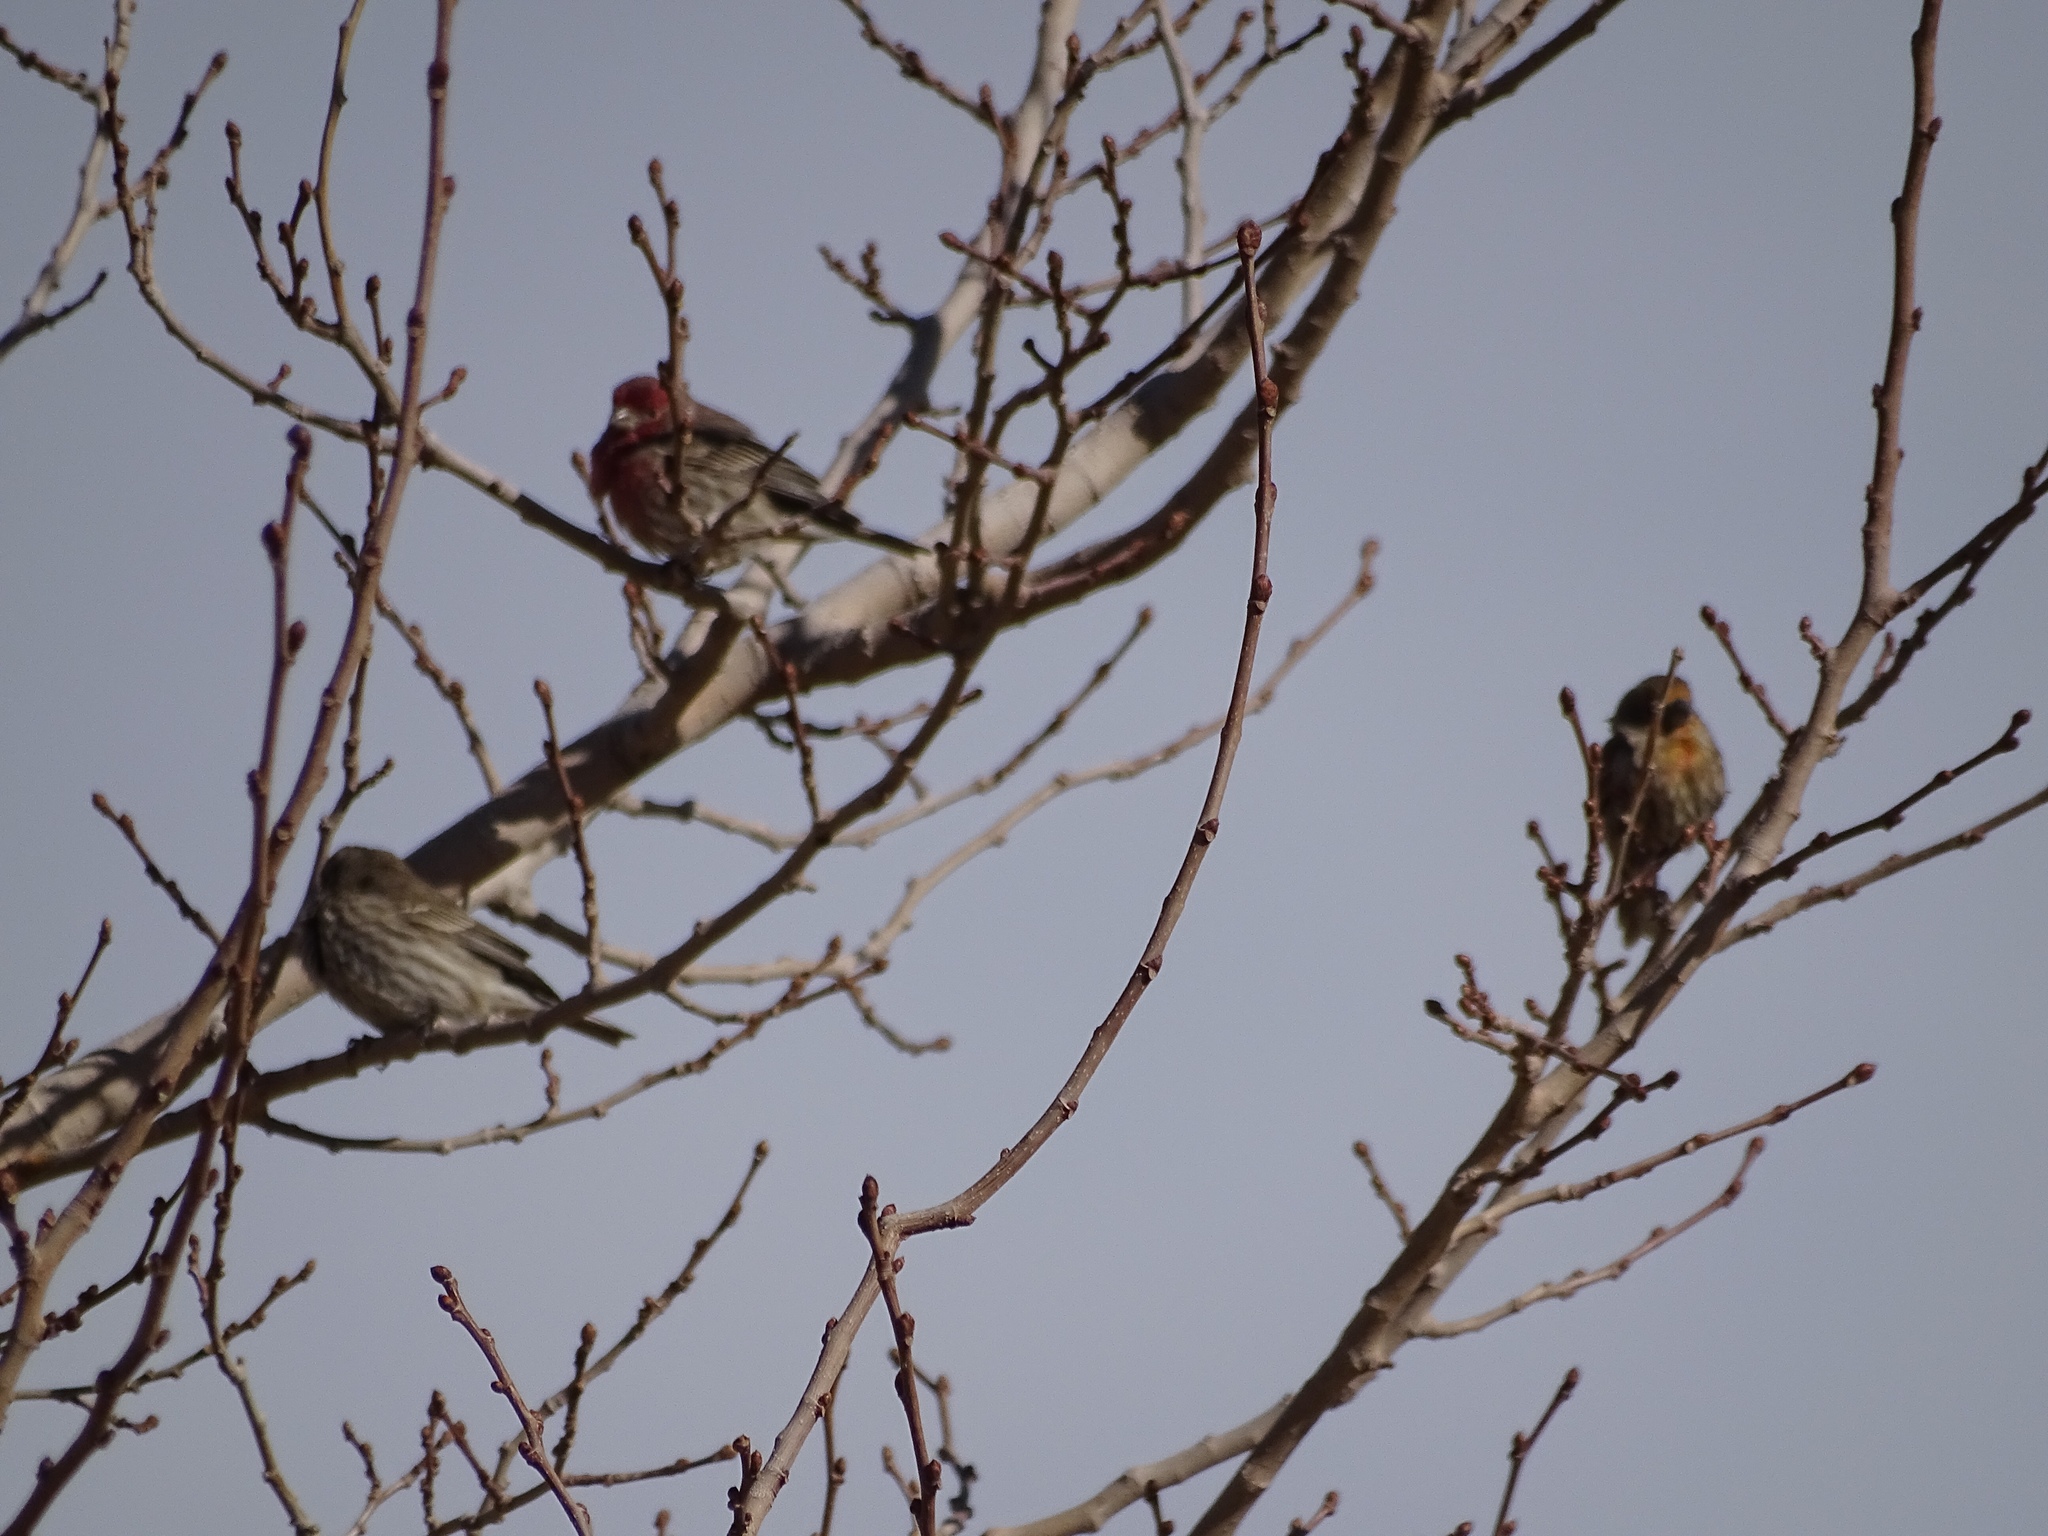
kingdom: Animalia
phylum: Chordata
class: Aves
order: Passeriformes
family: Fringillidae
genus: Haemorhous
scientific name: Haemorhous mexicanus
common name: House finch
